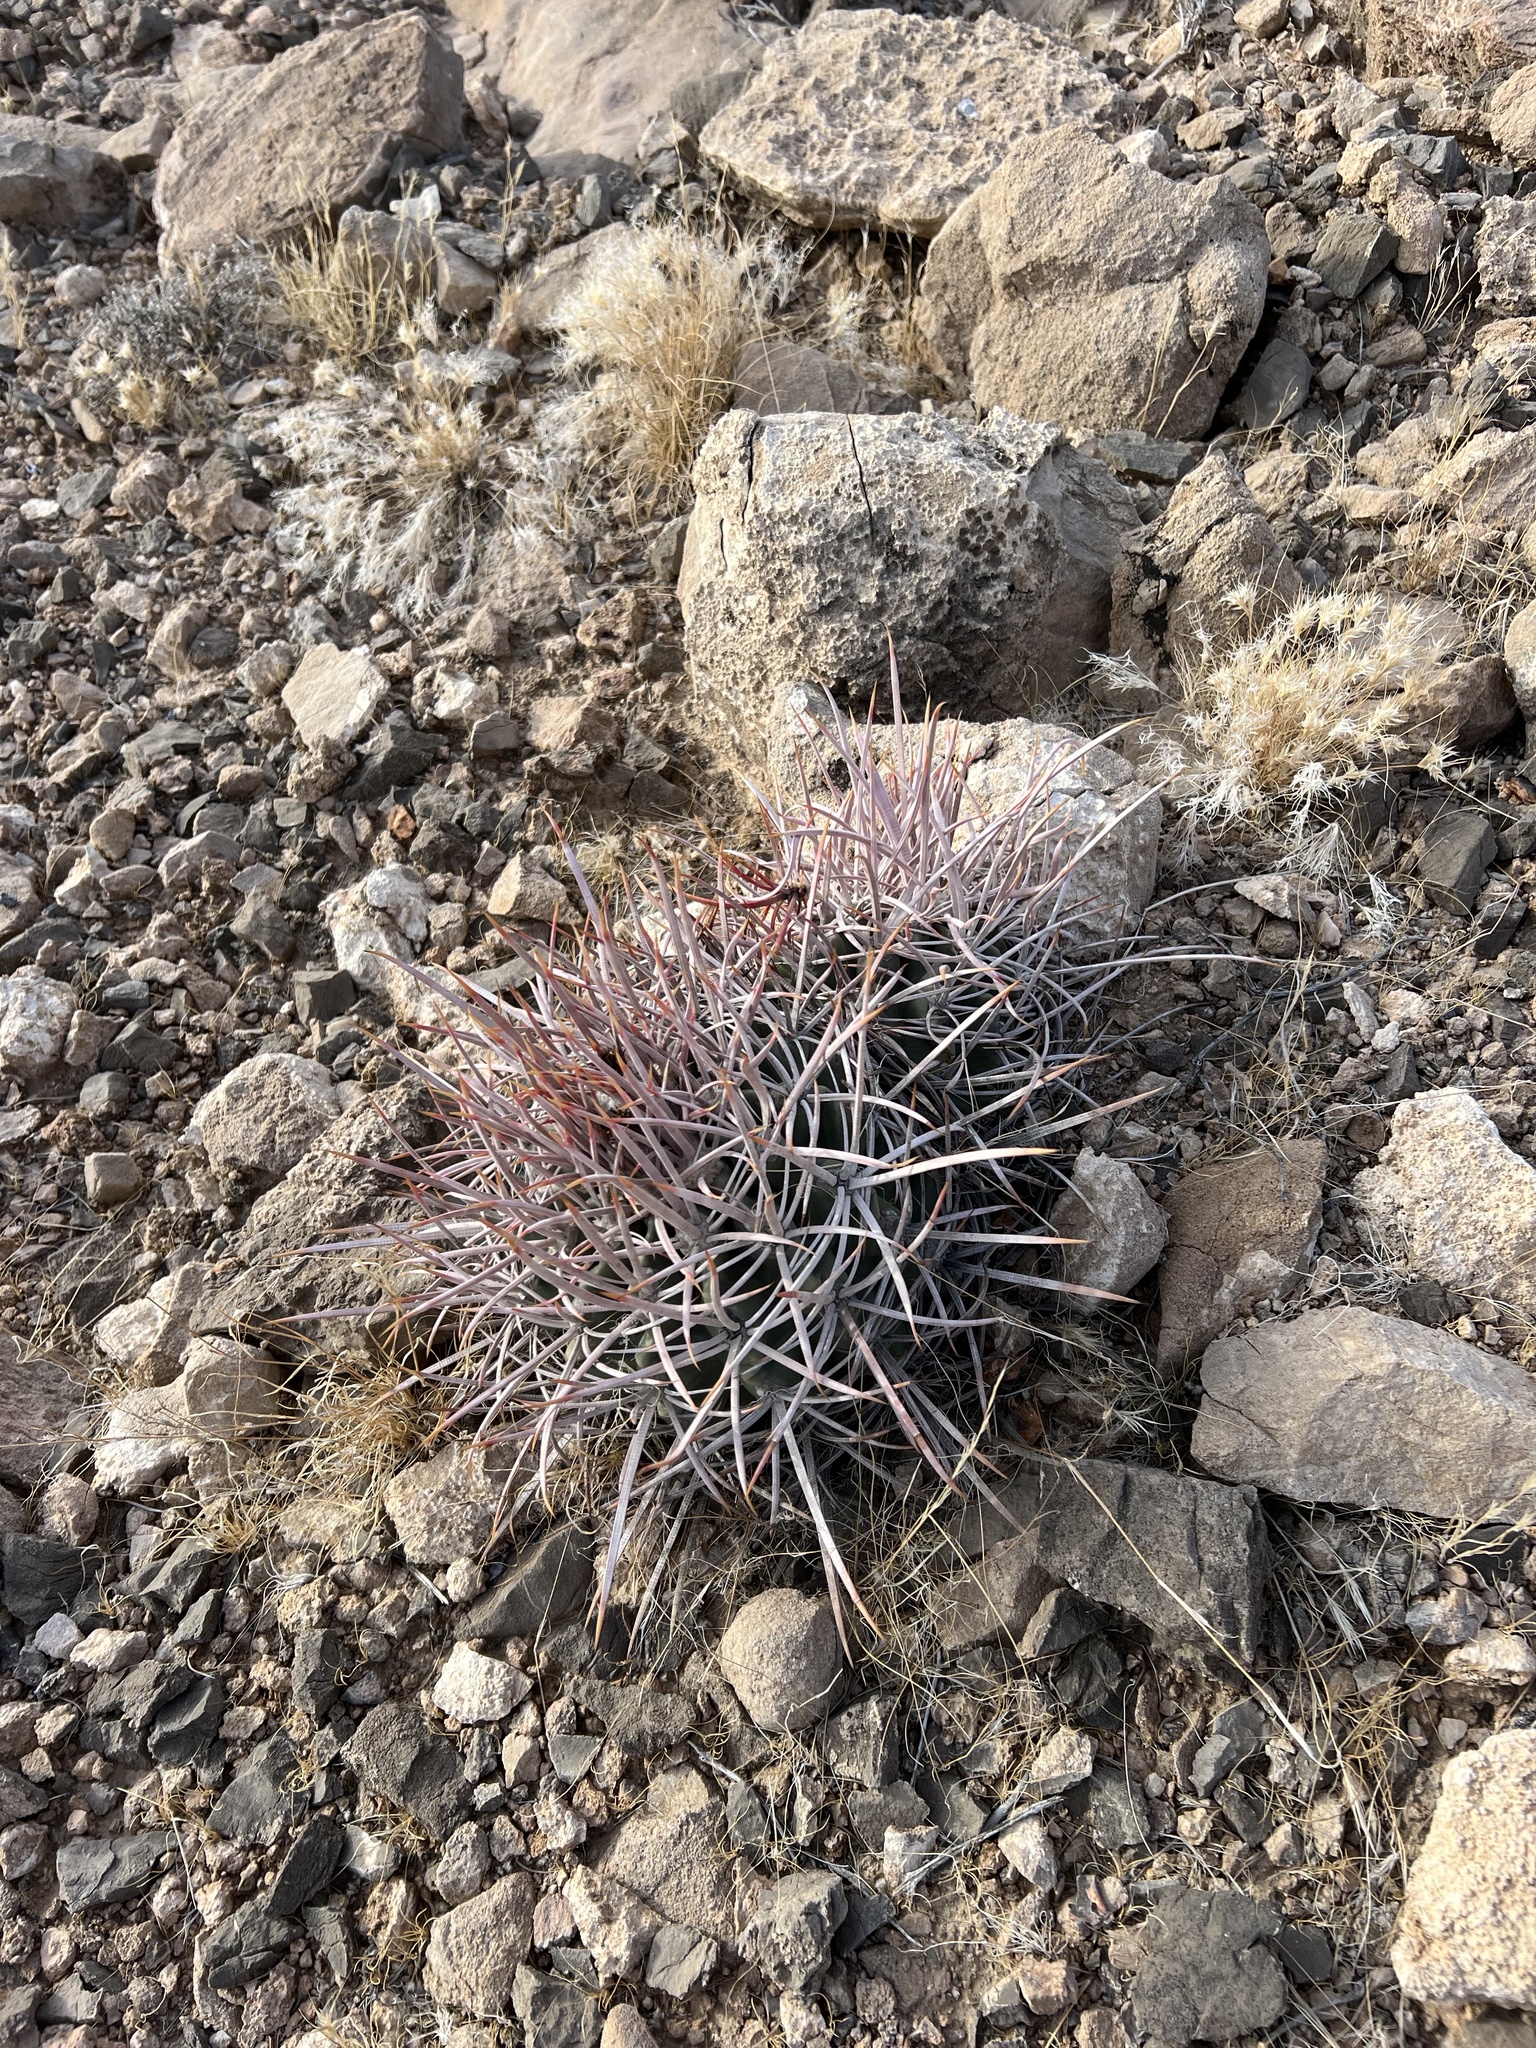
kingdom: Plantae
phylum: Tracheophyta
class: Magnoliopsida
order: Caryophyllales
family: Cactaceae
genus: Echinocactus
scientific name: Echinocactus polycephalus
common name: Cottontop cactus
